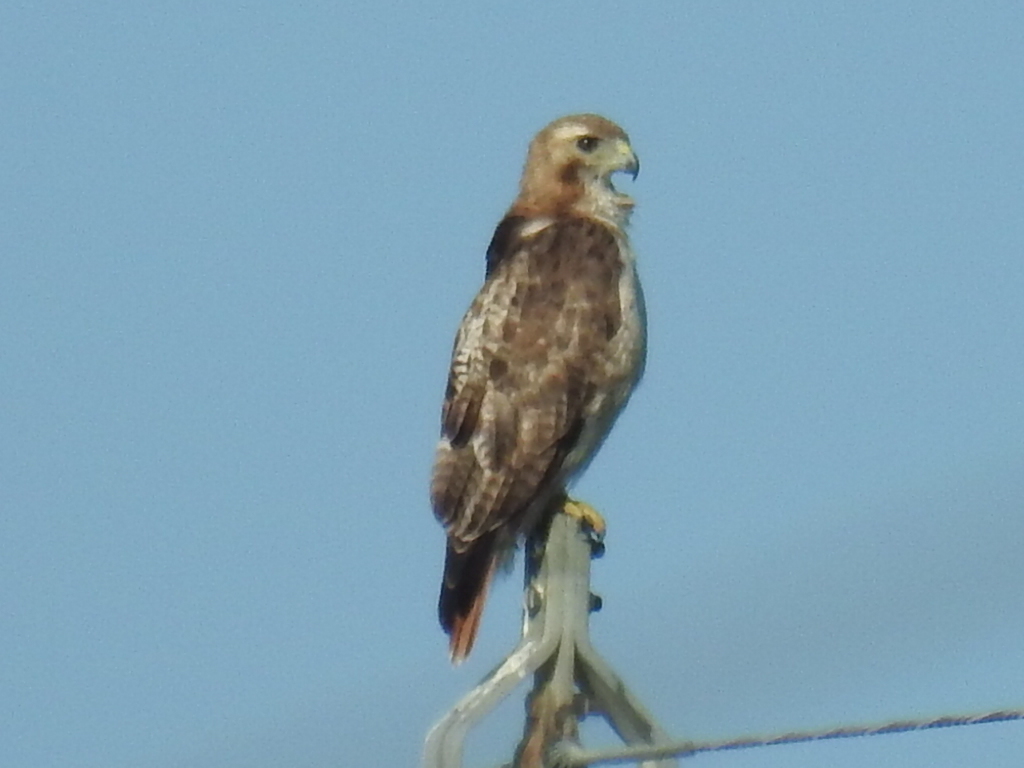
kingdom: Animalia
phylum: Chordata
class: Aves
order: Accipitriformes
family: Accipitridae
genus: Buteo
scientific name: Buteo jamaicensis
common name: Red-tailed hawk
